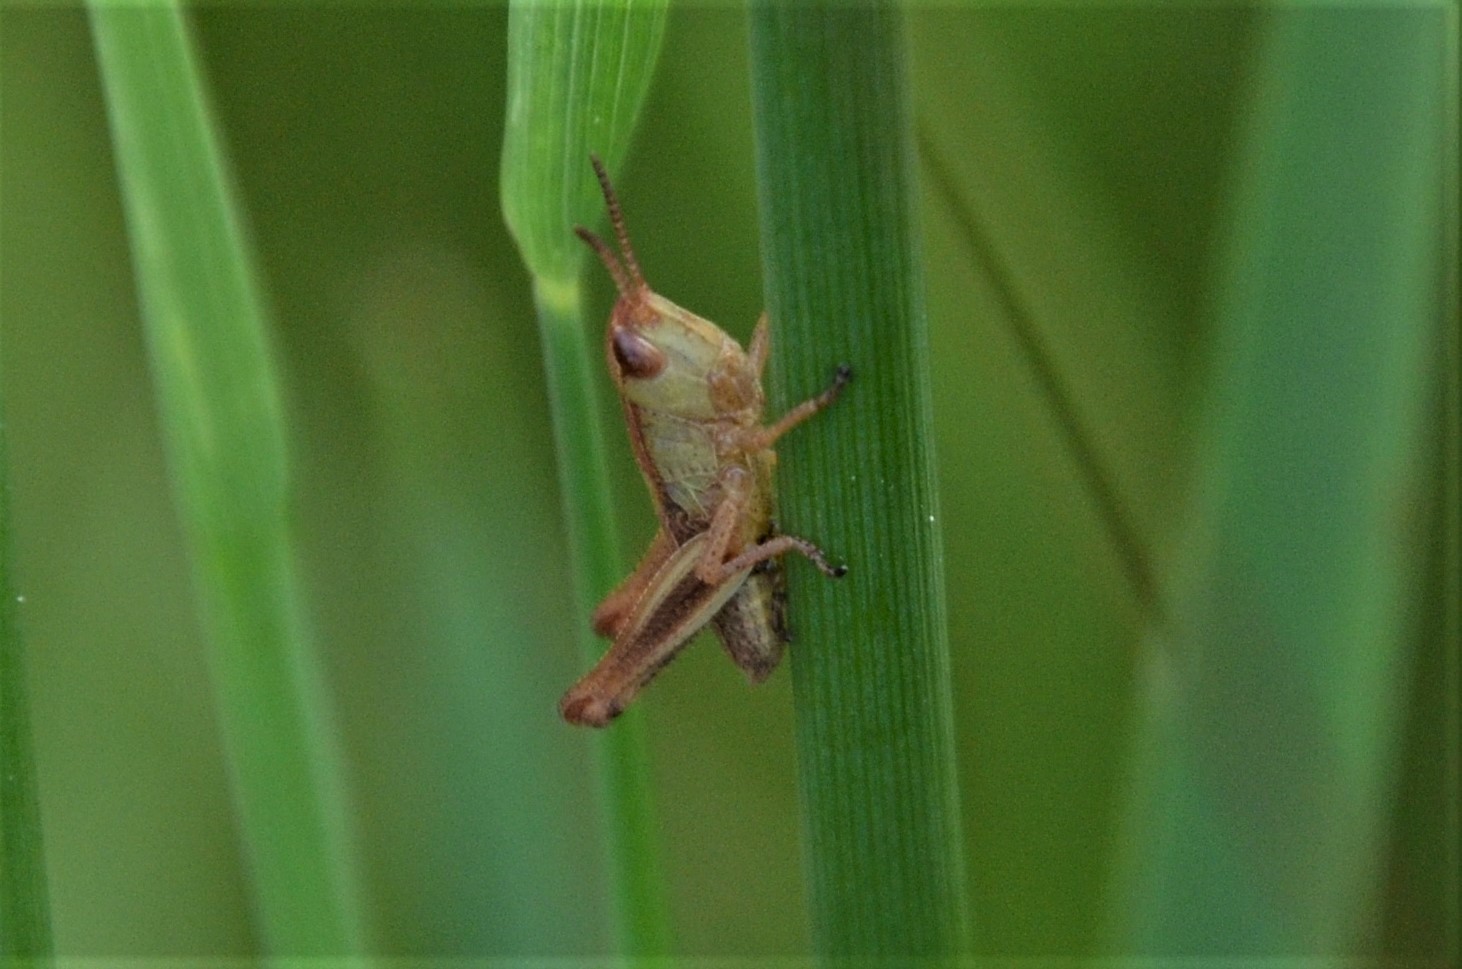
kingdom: Animalia
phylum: Arthropoda
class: Insecta
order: Orthoptera
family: Acrididae
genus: Pseudochorthippus
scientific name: Pseudochorthippus parallelus
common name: Meadow grasshopper
